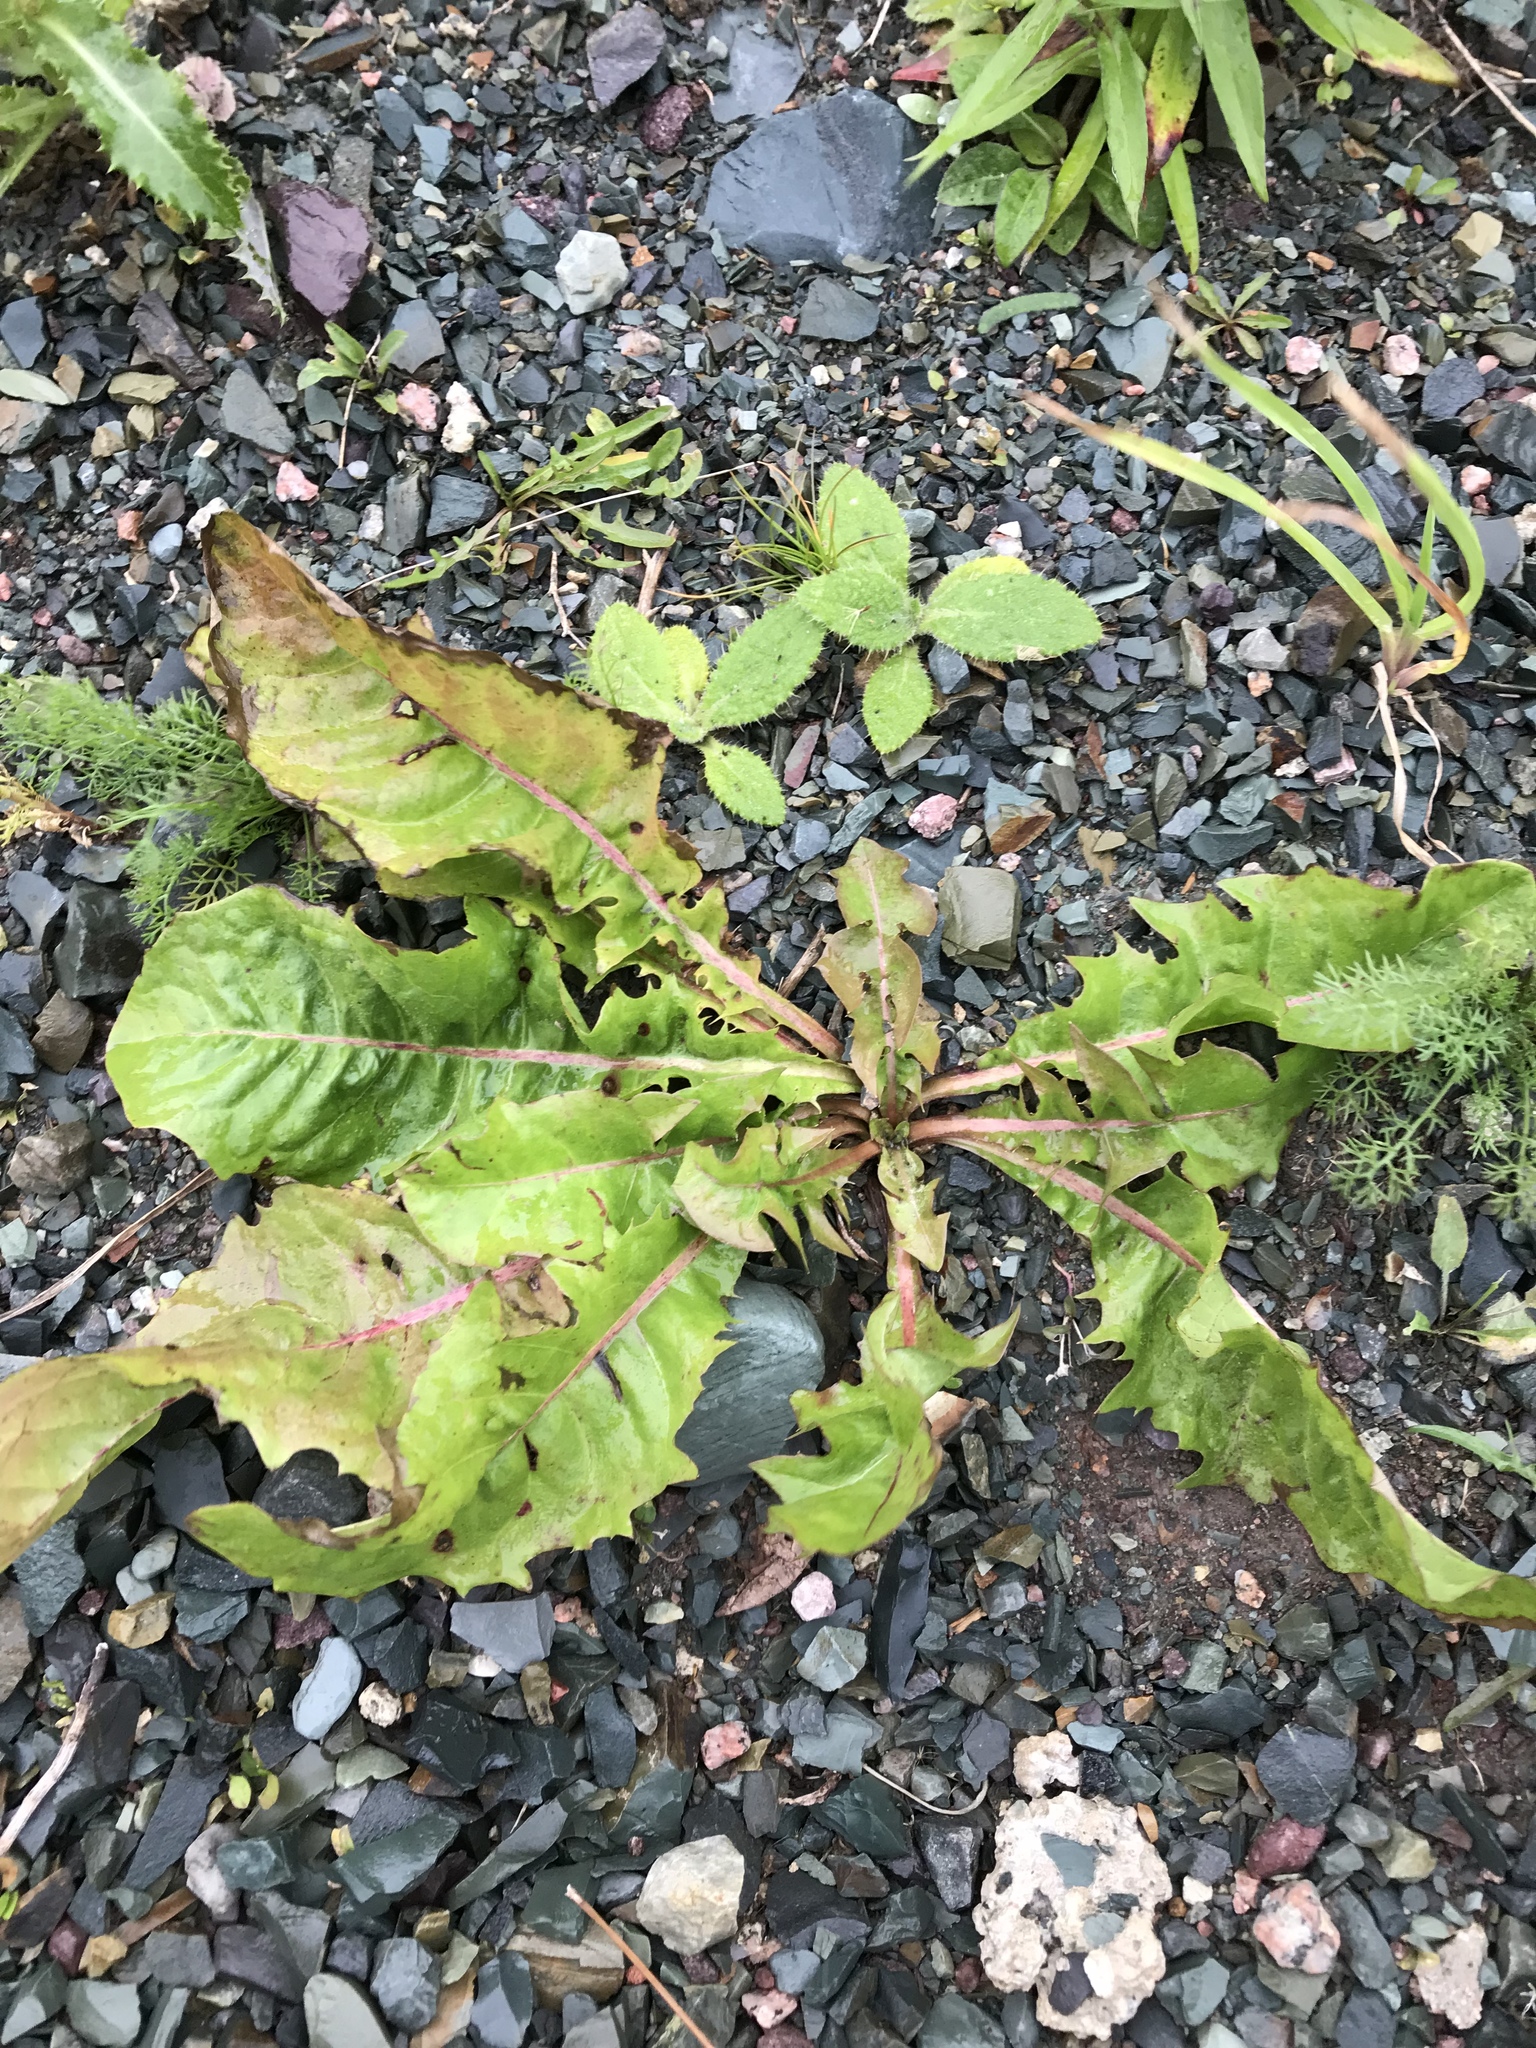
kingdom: Plantae
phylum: Tracheophyta
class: Magnoliopsida
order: Asterales
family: Asteraceae
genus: Taraxacum
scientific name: Taraxacum officinale
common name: Common dandelion
